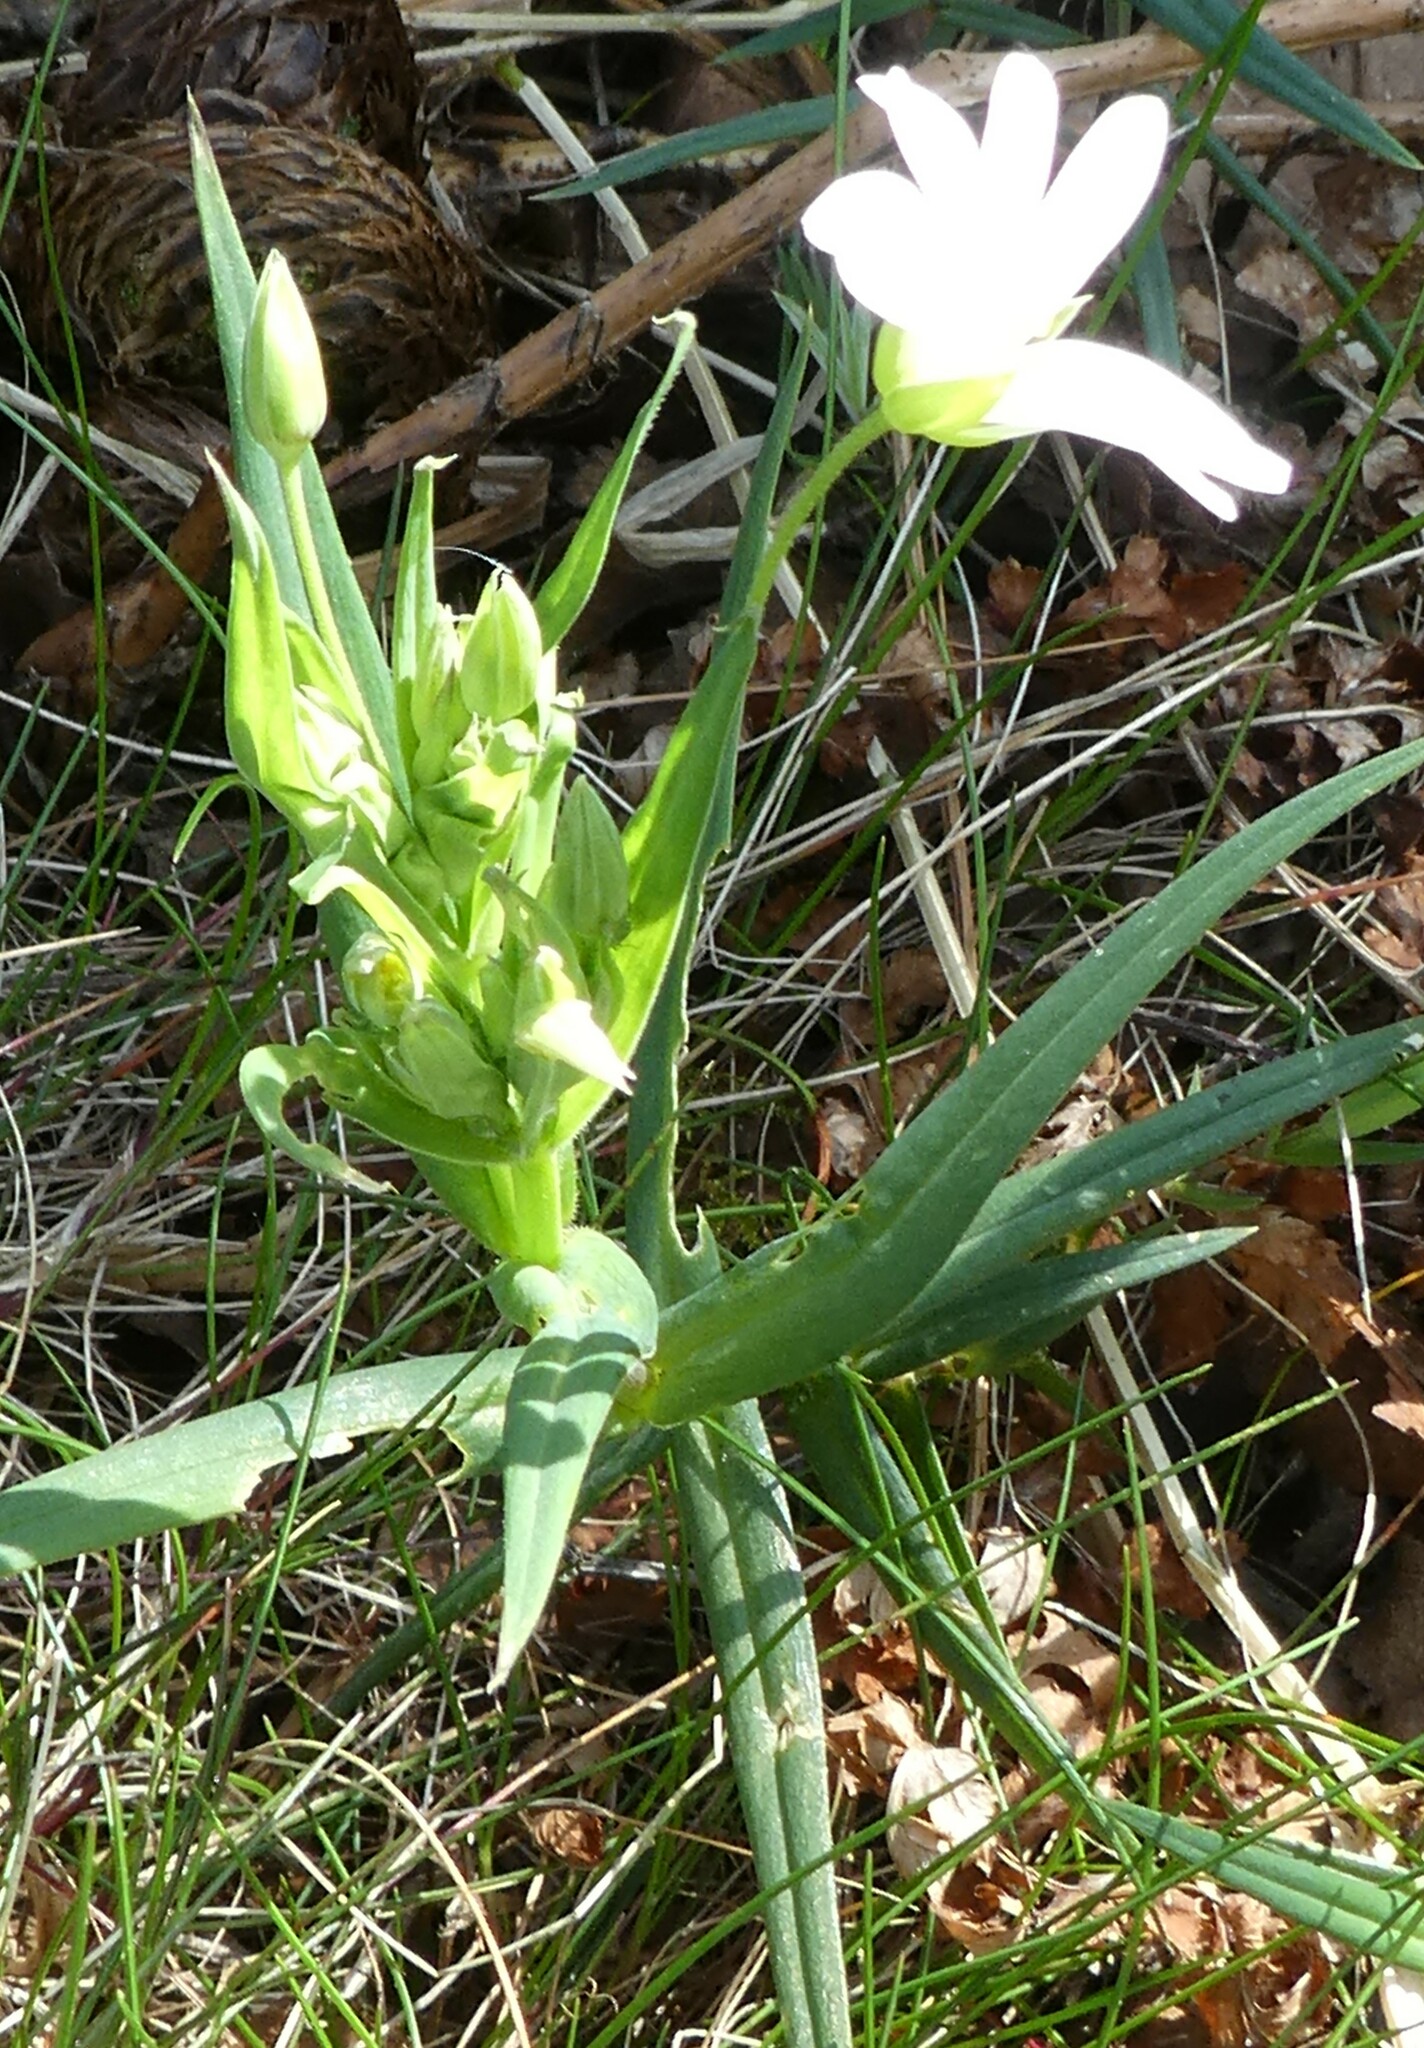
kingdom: Plantae
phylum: Tracheophyta
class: Magnoliopsida
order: Caryophyllales
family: Caryophyllaceae
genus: Rabelera
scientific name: Rabelera holostea
